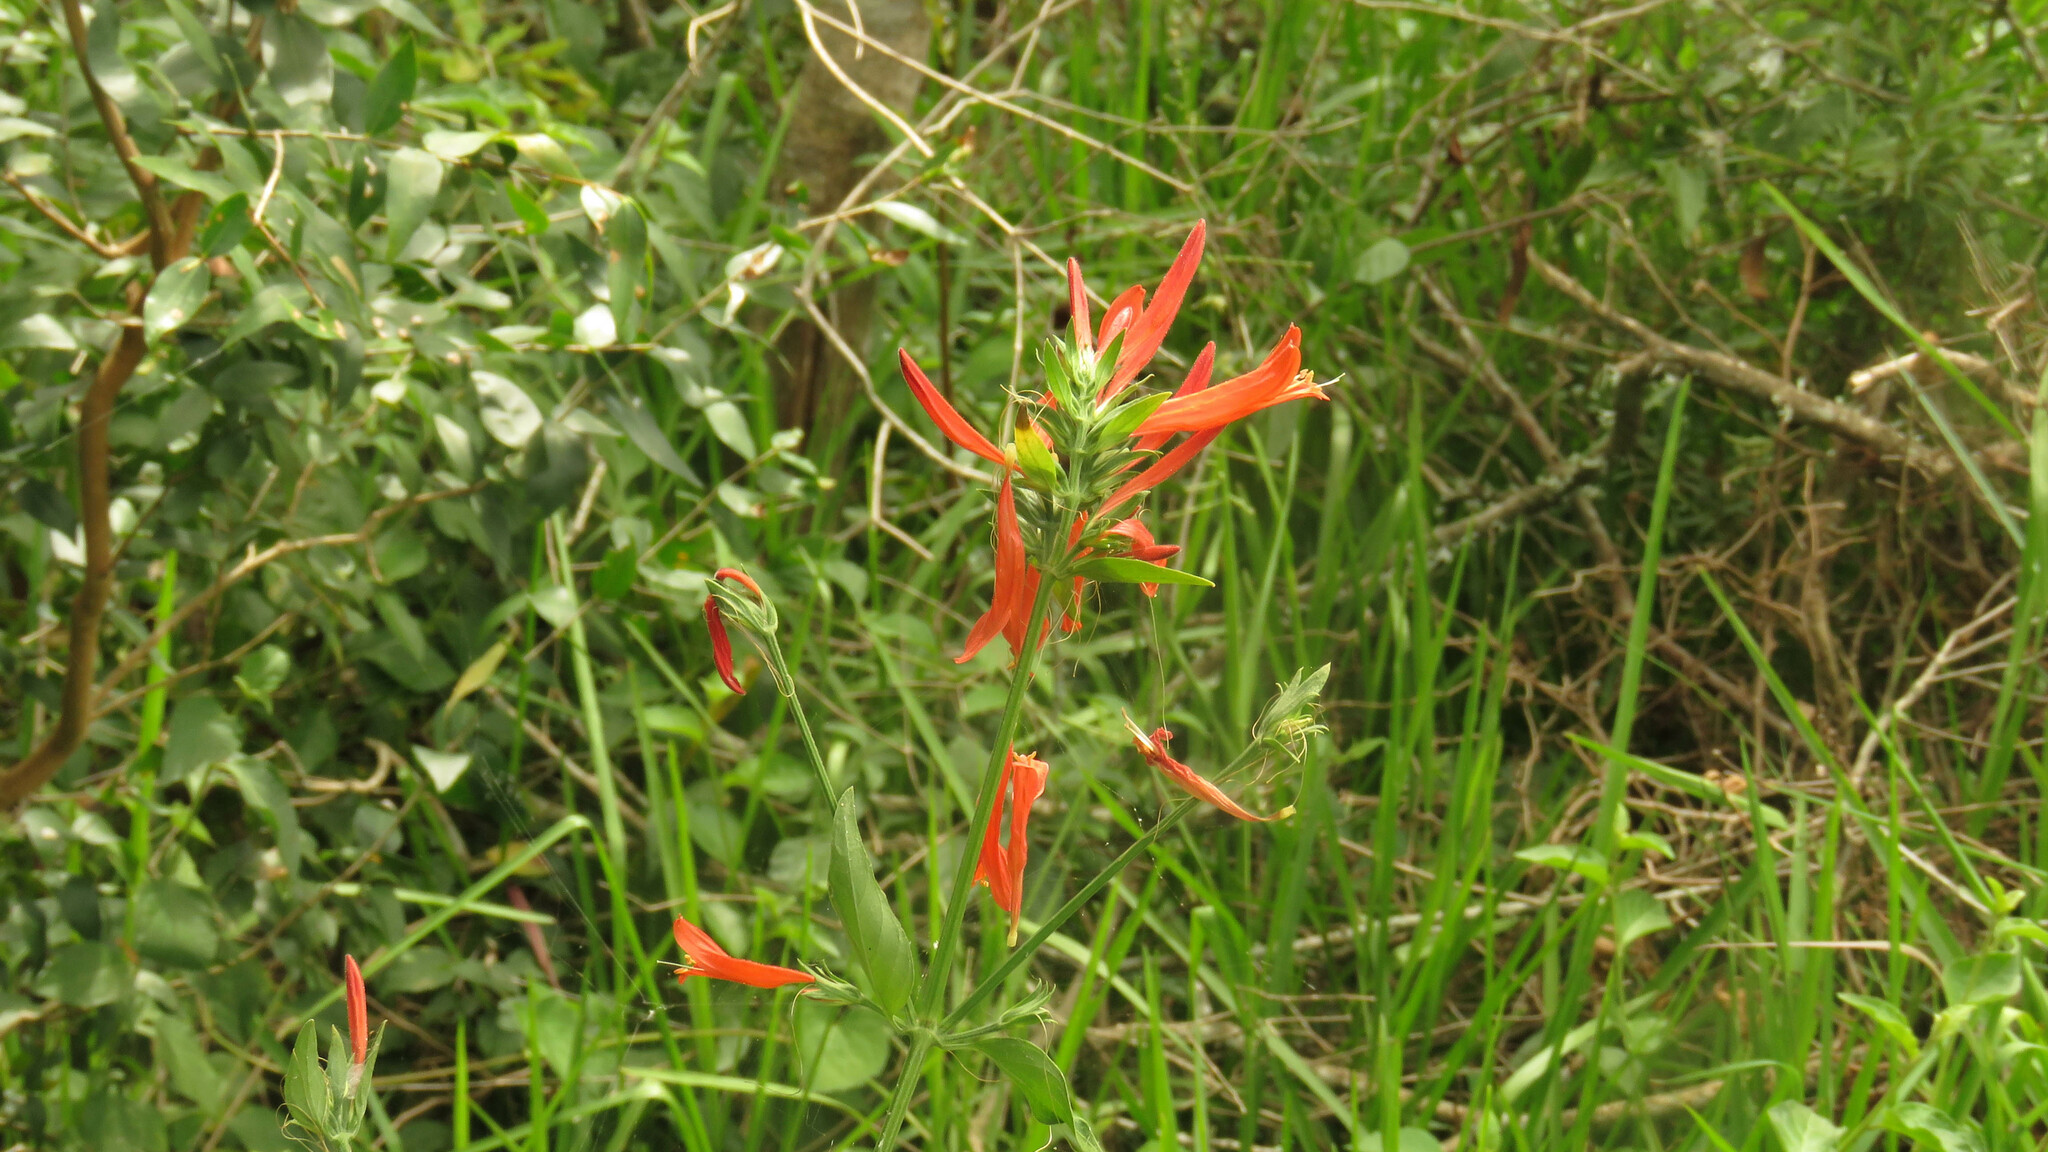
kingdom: Plantae
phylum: Tracheophyta
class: Magnoliopsida
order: Lamiales
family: Acanthaceae
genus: Dicliptera
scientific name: Dicliptera squarrosa
